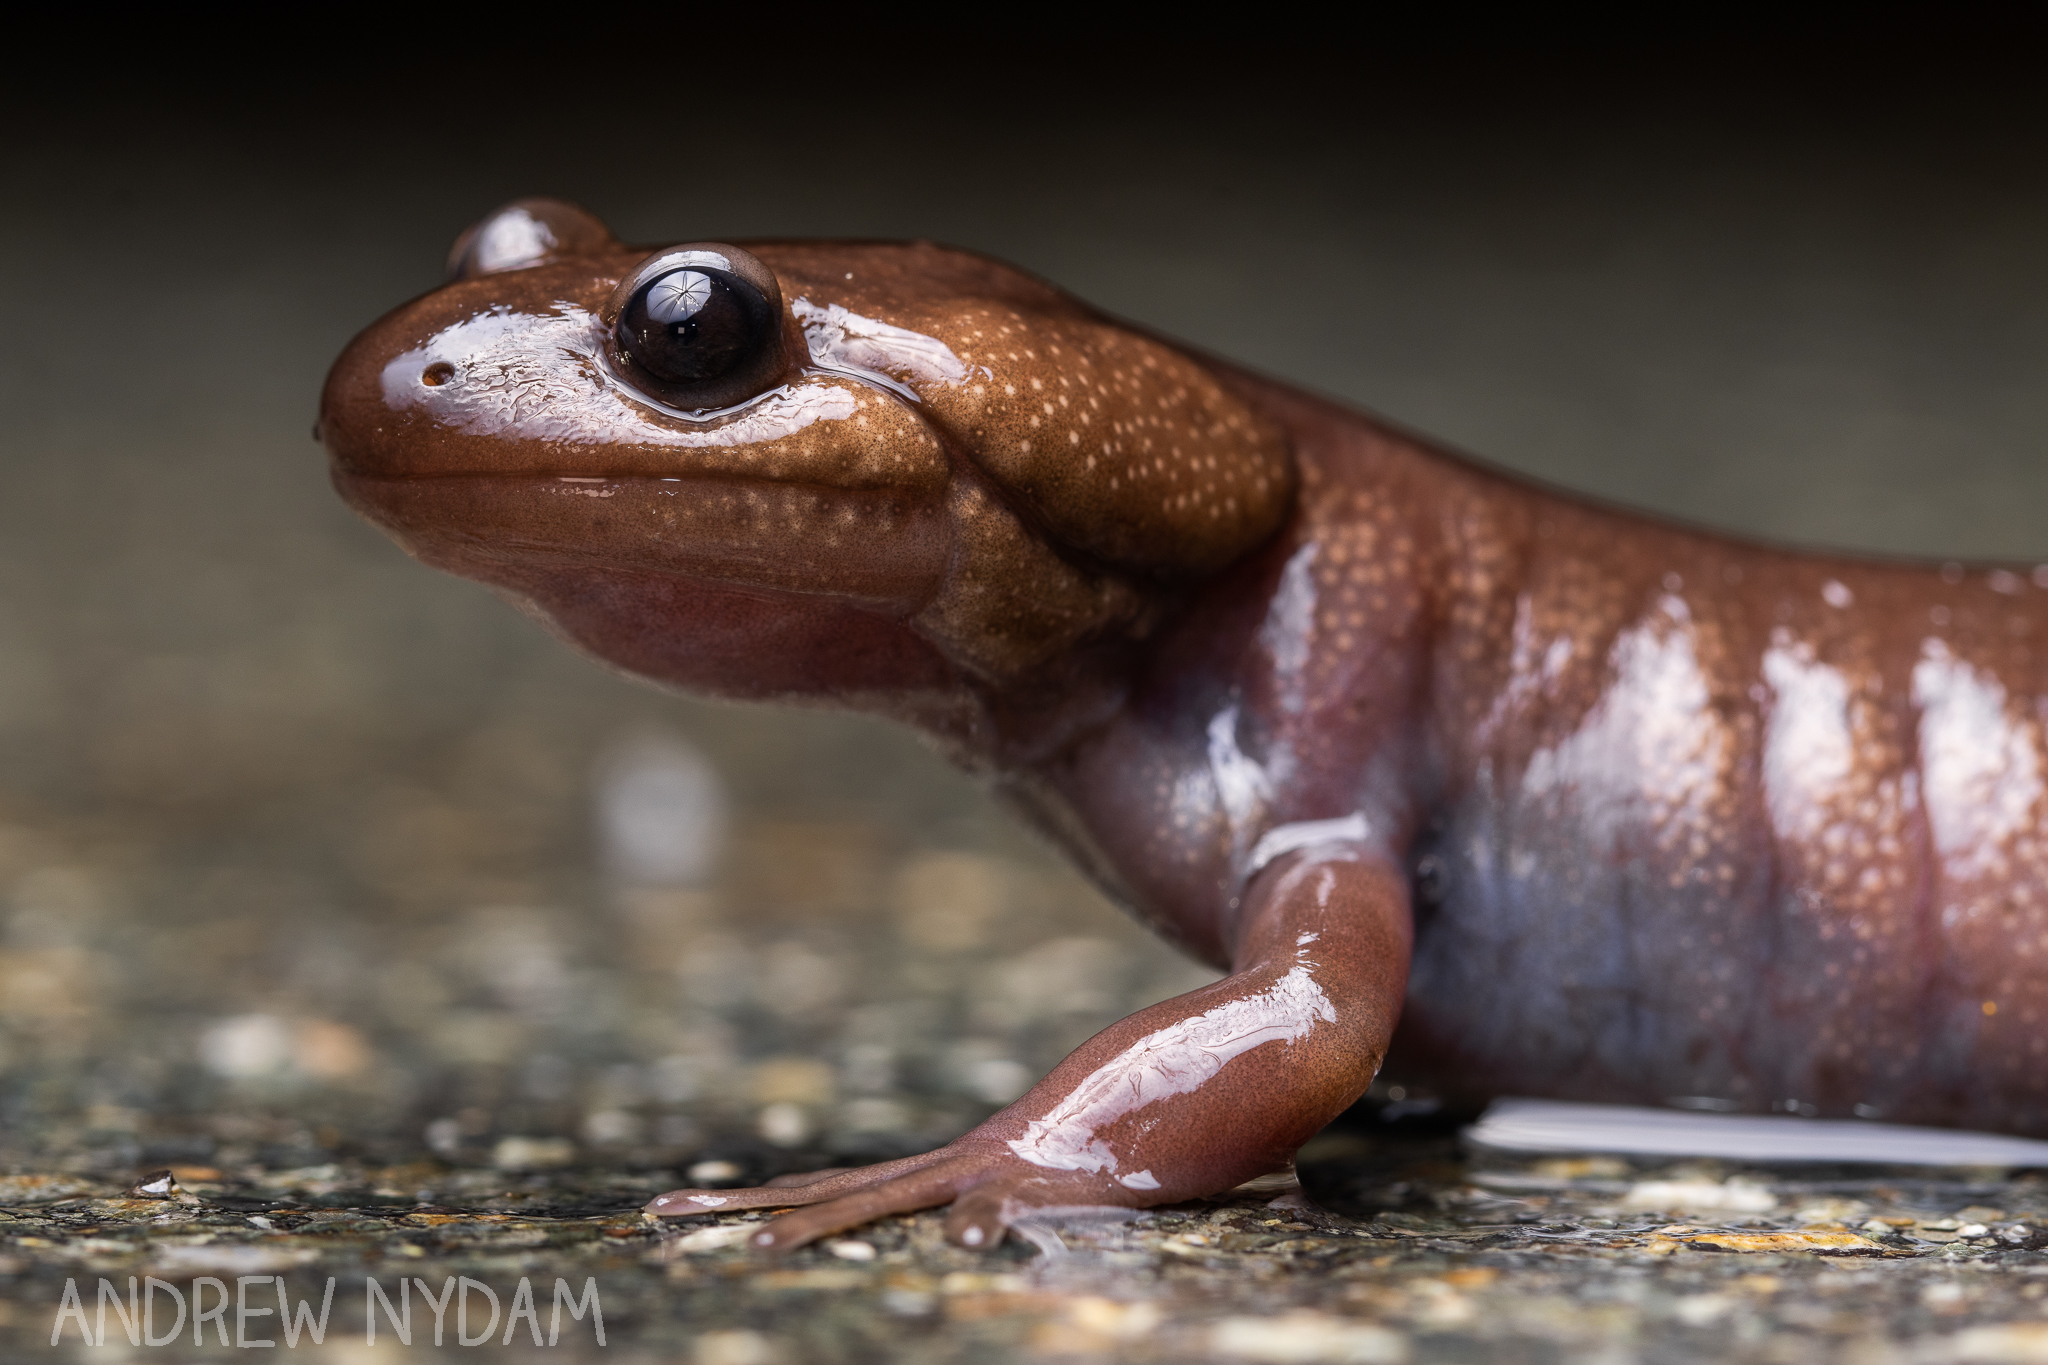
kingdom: Animalia
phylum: Chordata
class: Amphibia
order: Caudata
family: Ambystomatidae
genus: Ambystoma
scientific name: Ambystoma gracile
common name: Northwestern salamander
